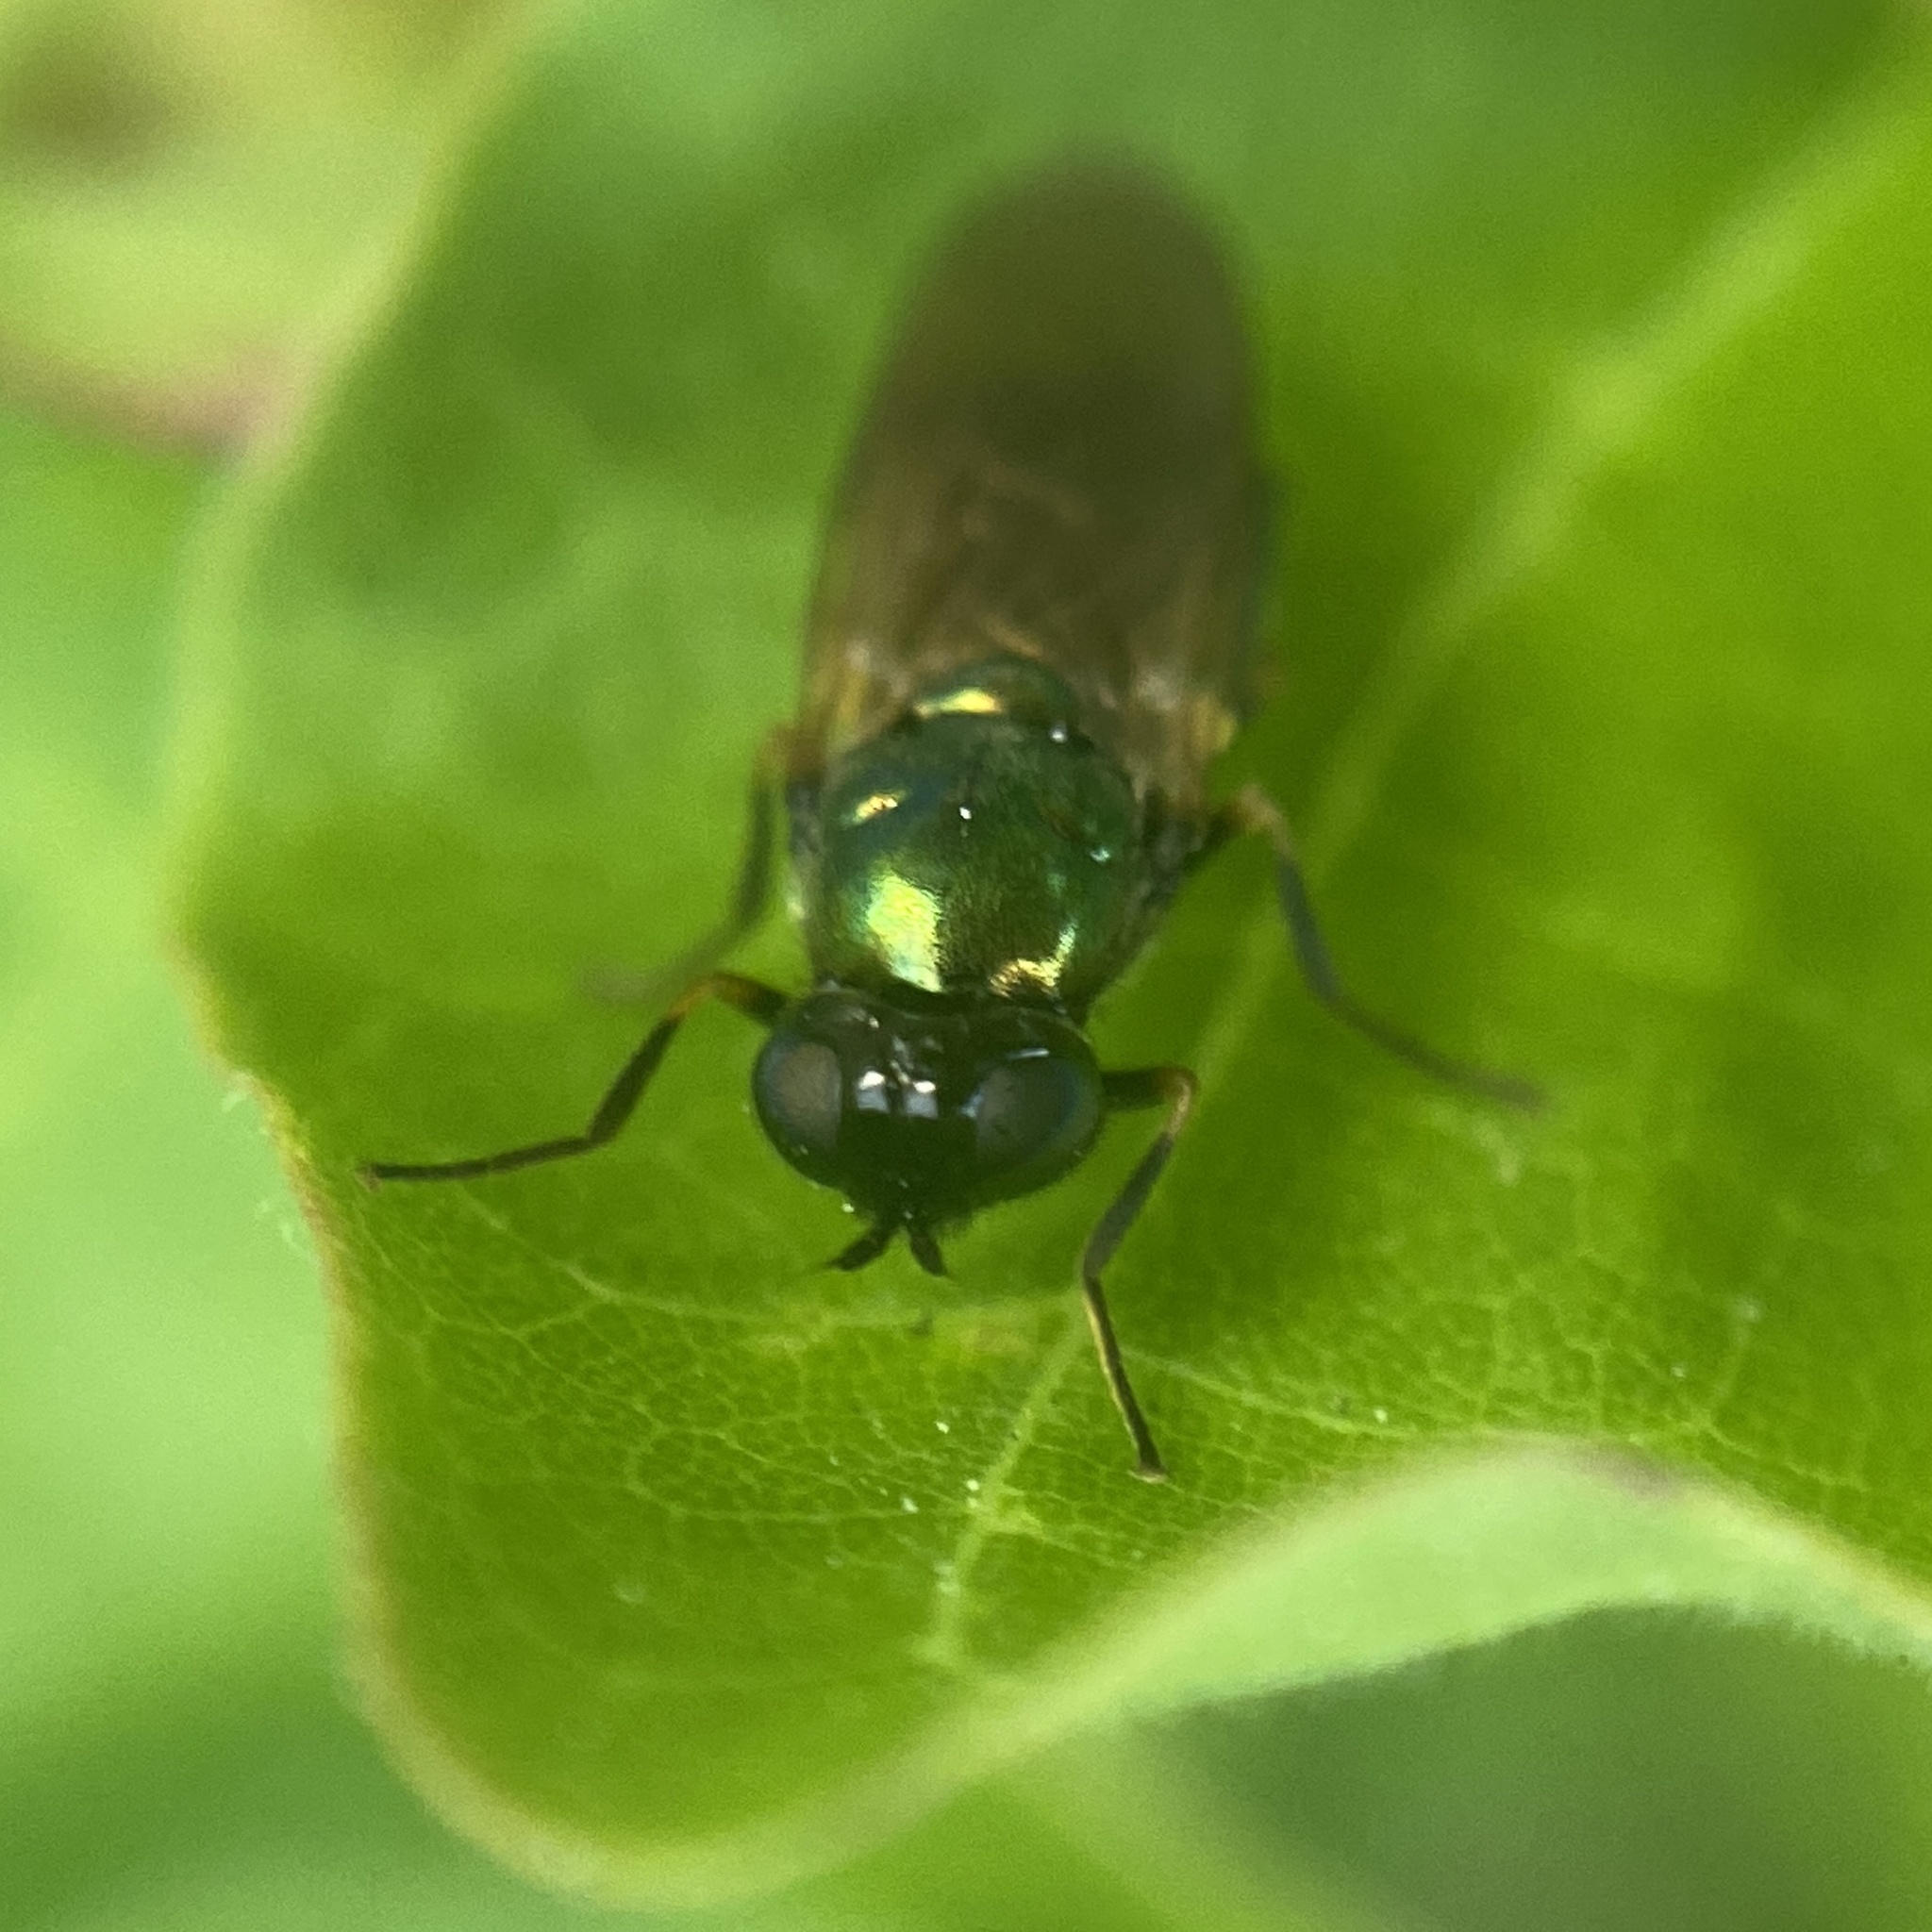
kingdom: Animalia
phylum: Arthropoda
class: Insecta
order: Diptera
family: Stratiomyidae
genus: Chloromyia
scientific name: Chloromyia formosa
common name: Soldier fly
